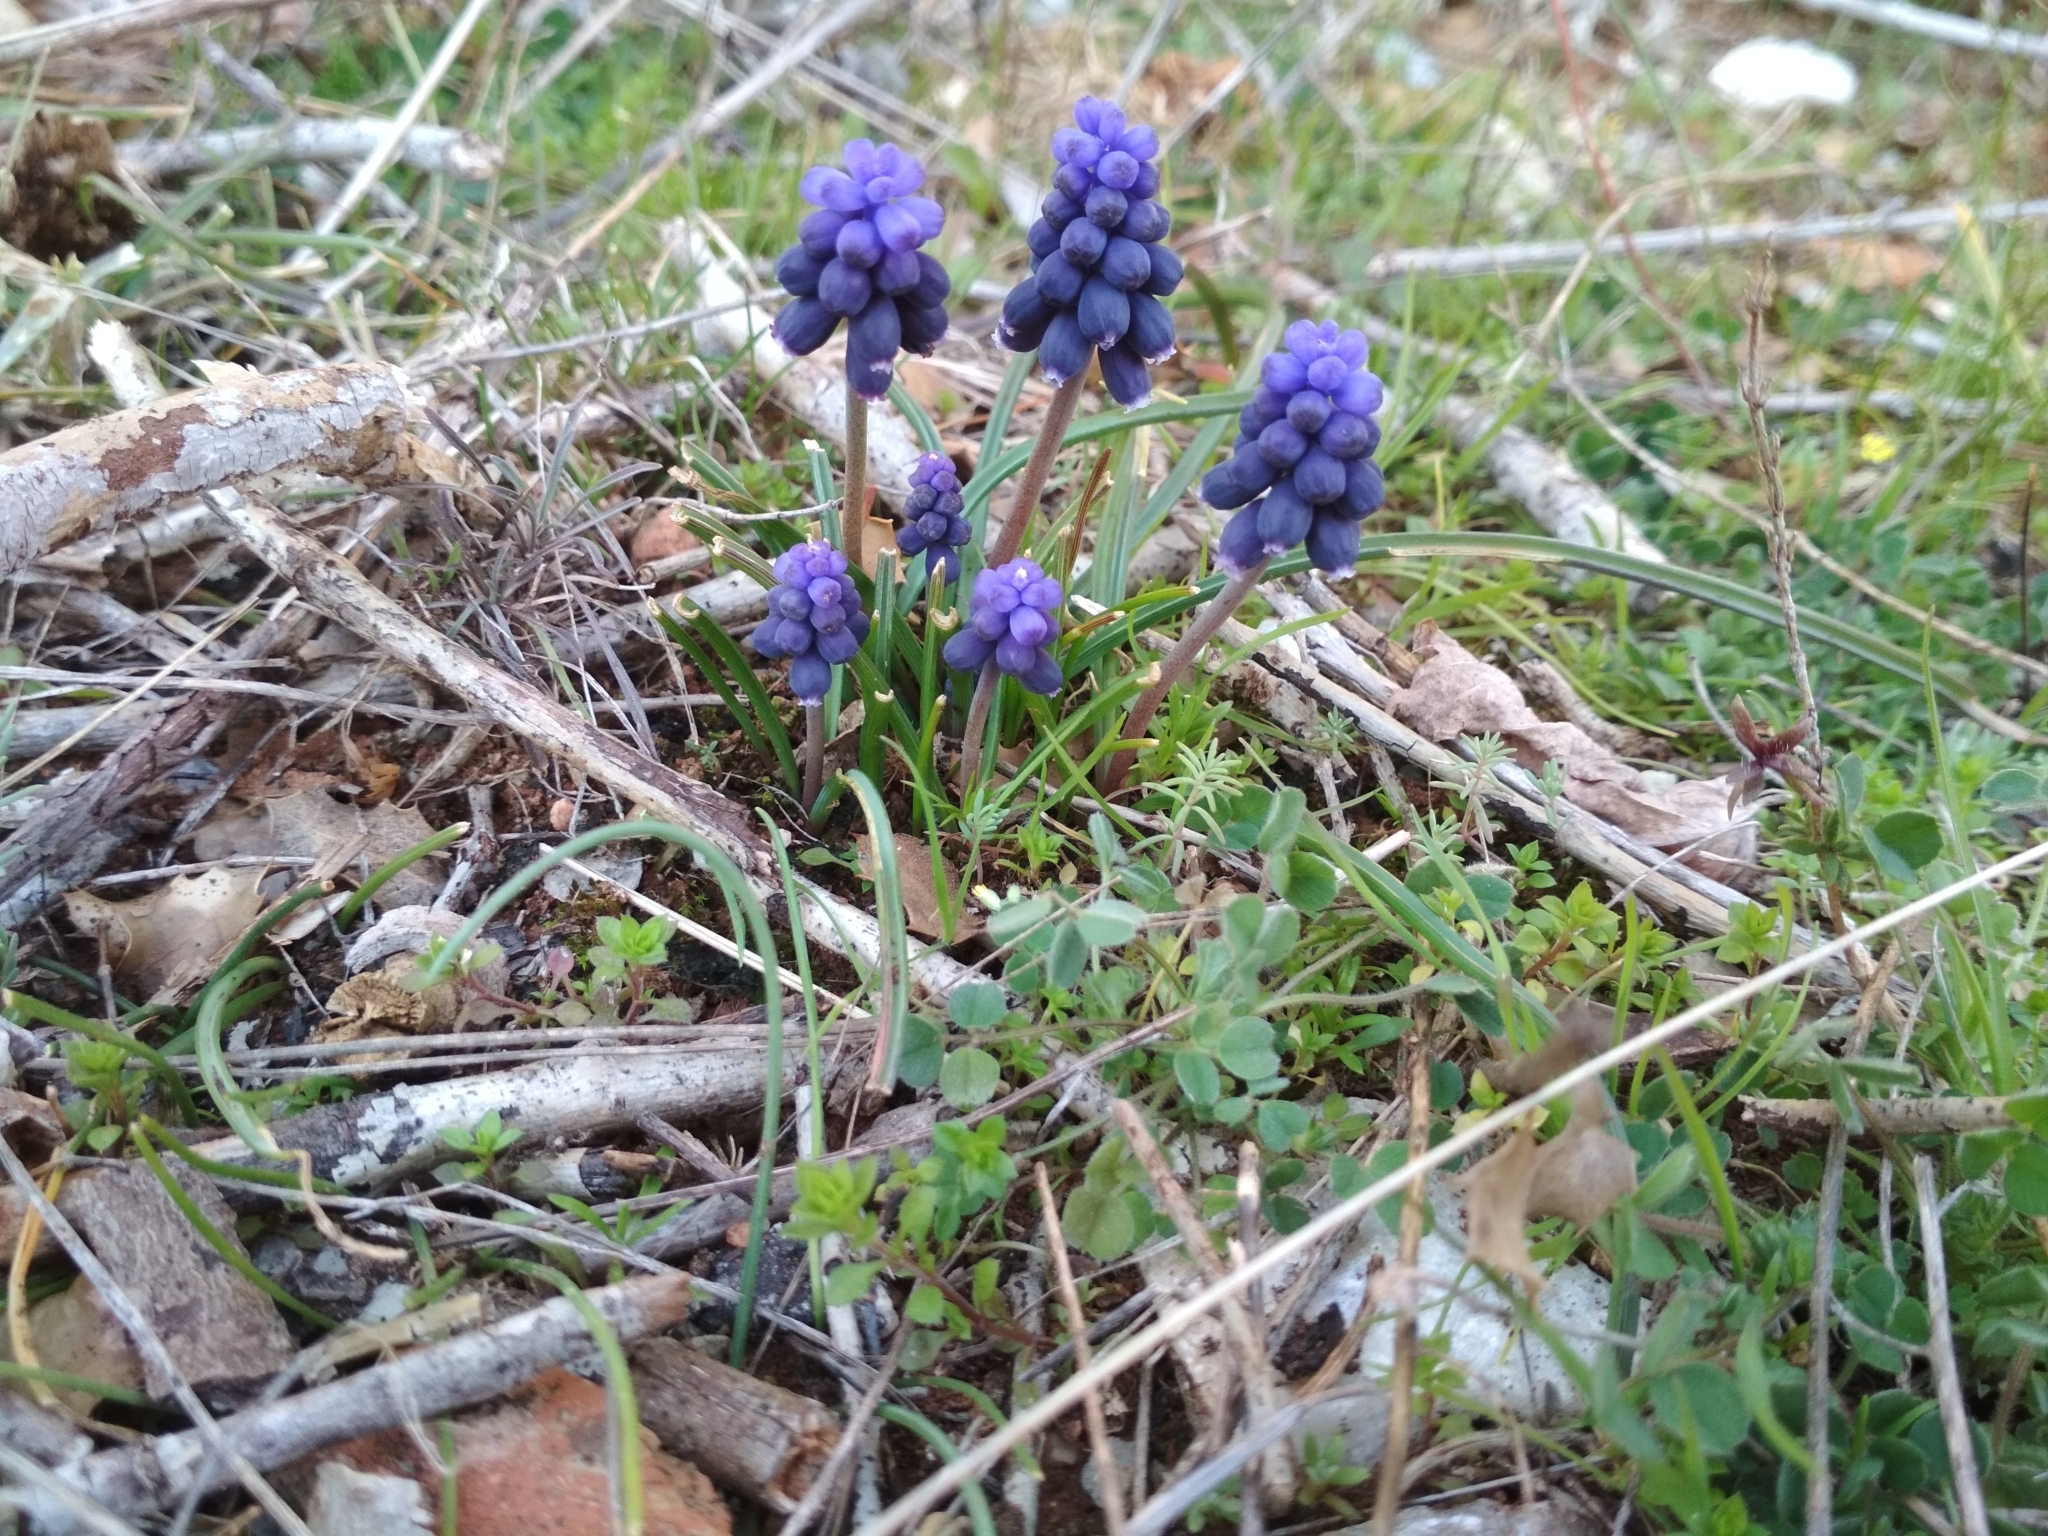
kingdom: Plantae
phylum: Tracheophyta
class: Liliopsida
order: Asparagales
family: Asparagaceae
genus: Muscari
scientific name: Muscari neglectum
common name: Grape-hyacinth
